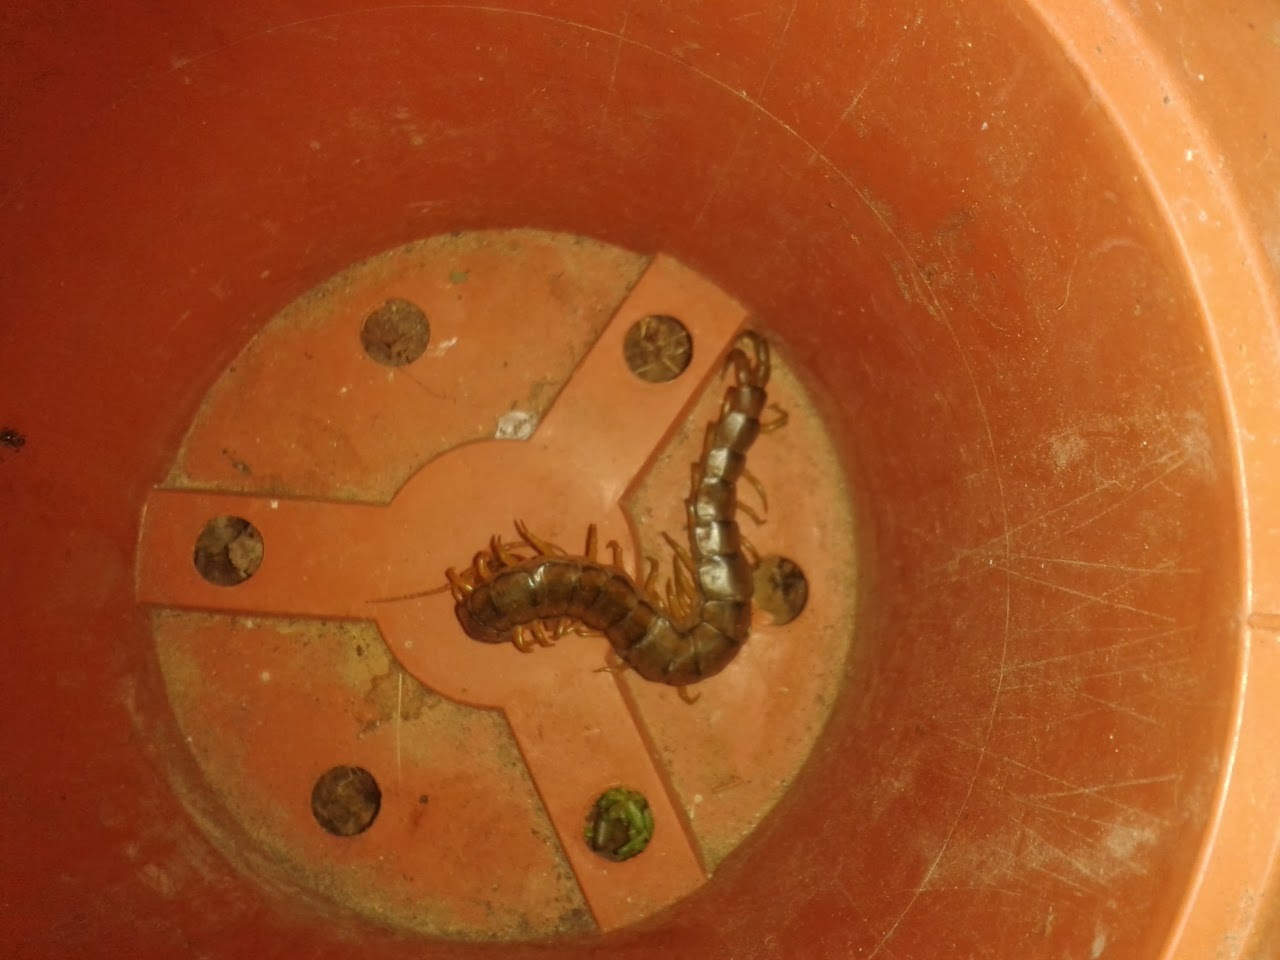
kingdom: Animalia
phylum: Arthropoda
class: Chilopoda
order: Scolopendromorpha
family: Scolopendridae
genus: Scolopendra
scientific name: Scolopendra cingulata
